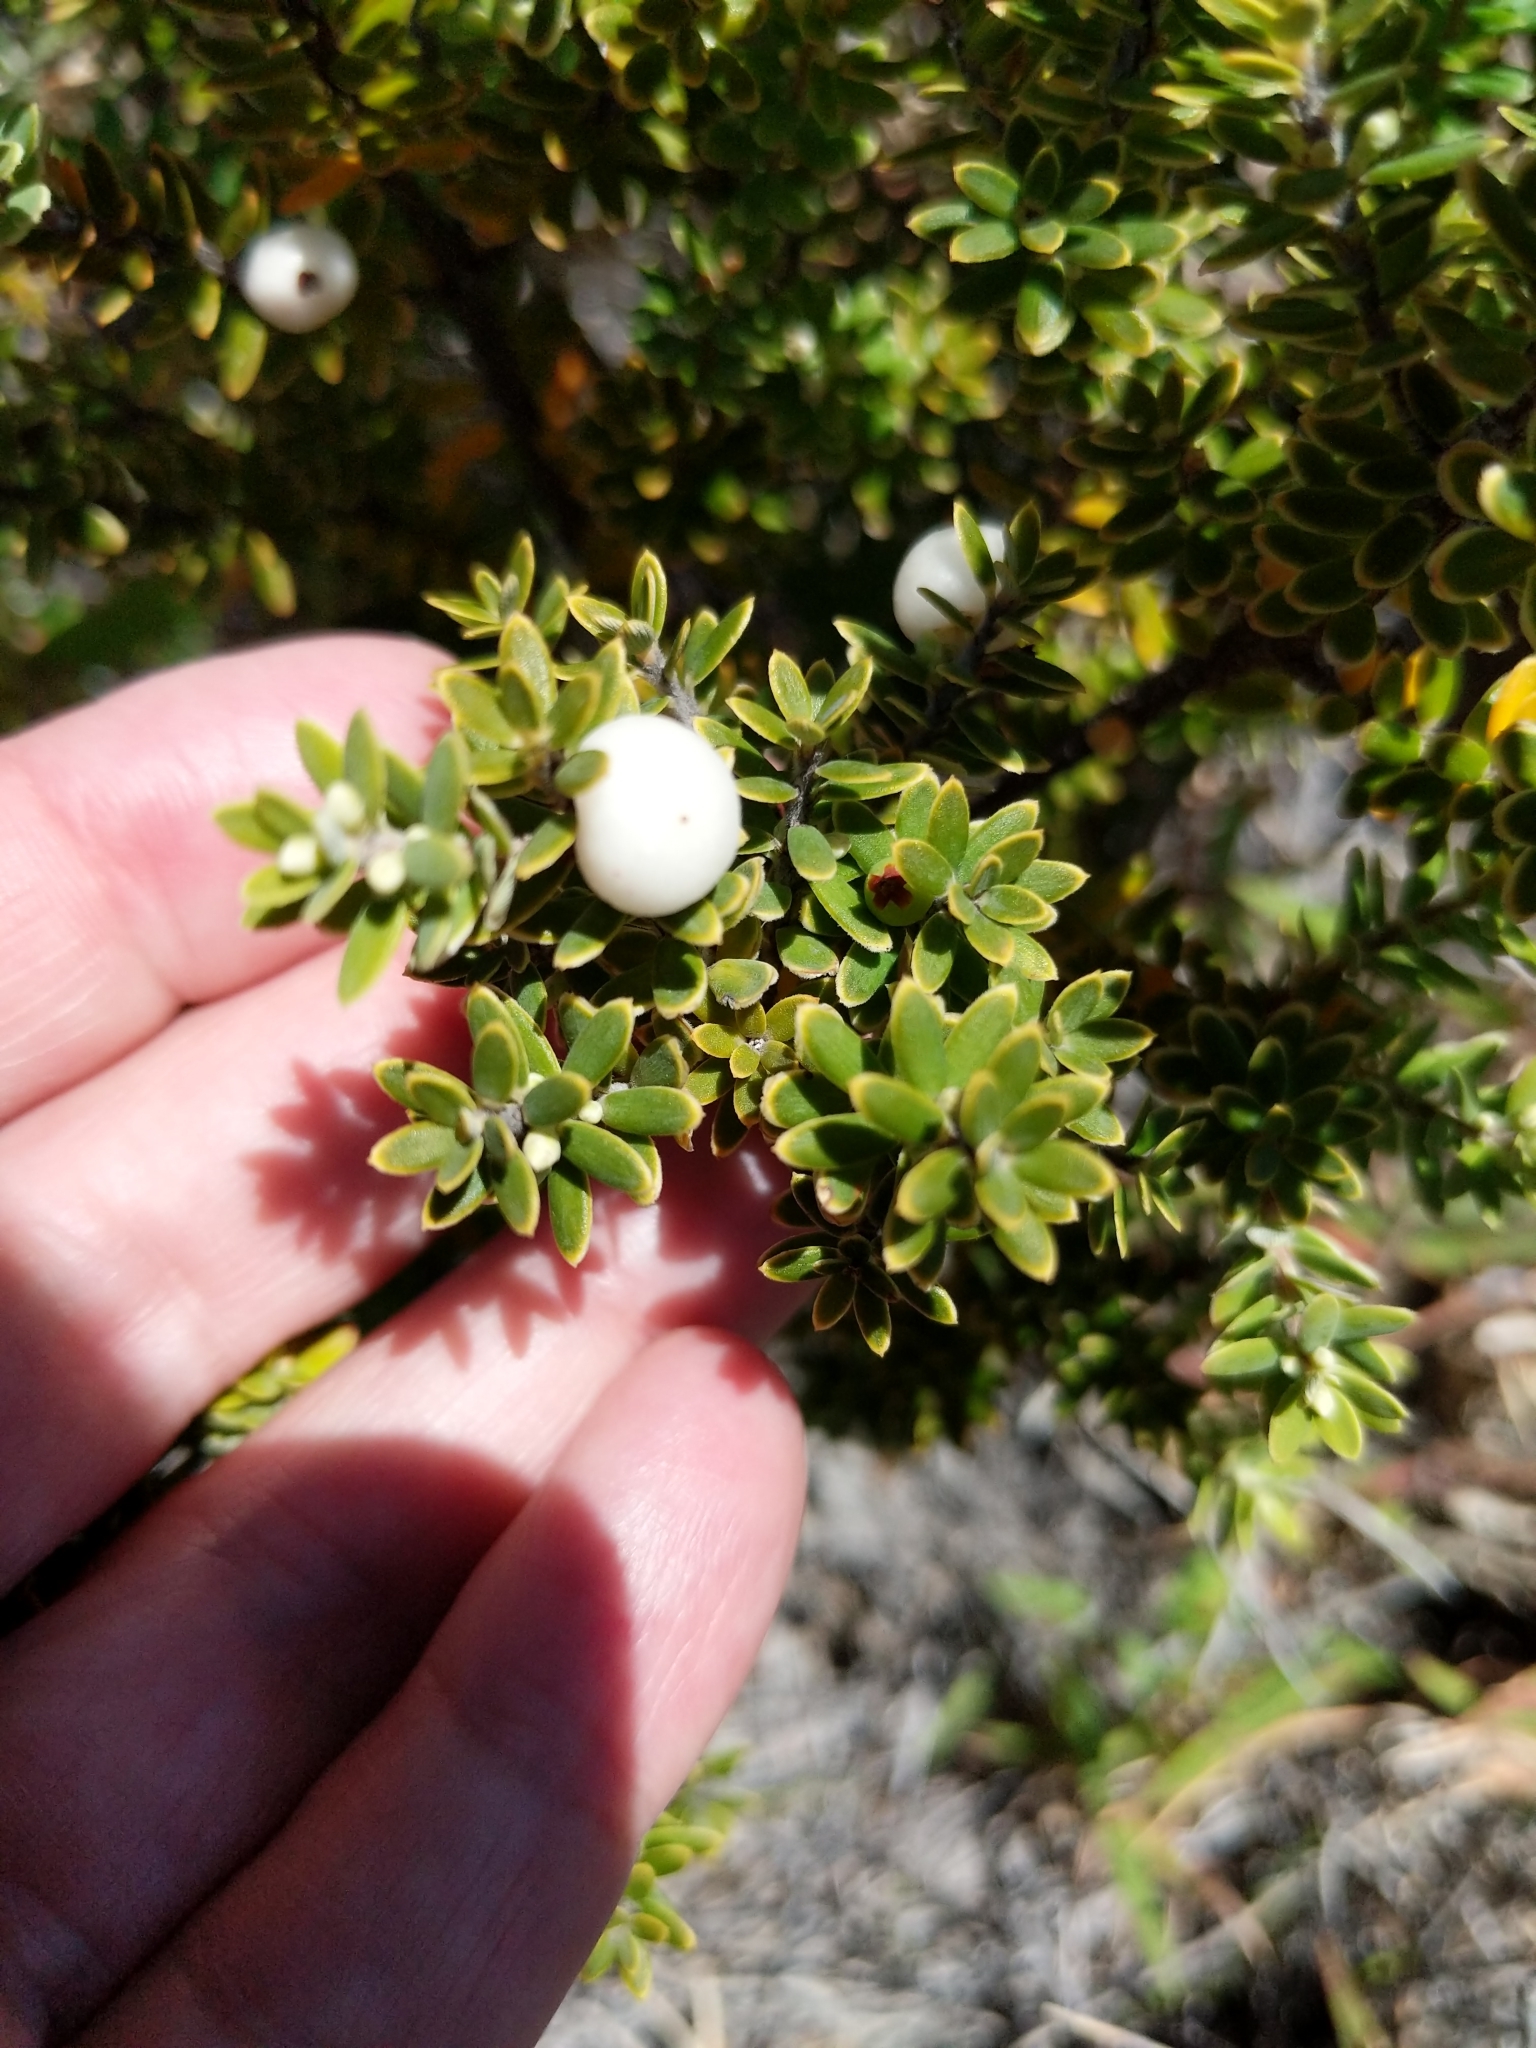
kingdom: Plantae
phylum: Tracheophyta
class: Magnoliopsida
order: Ericales
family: Ericaceae
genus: Leptecophylla
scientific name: Leptecophylla tameiameiae
